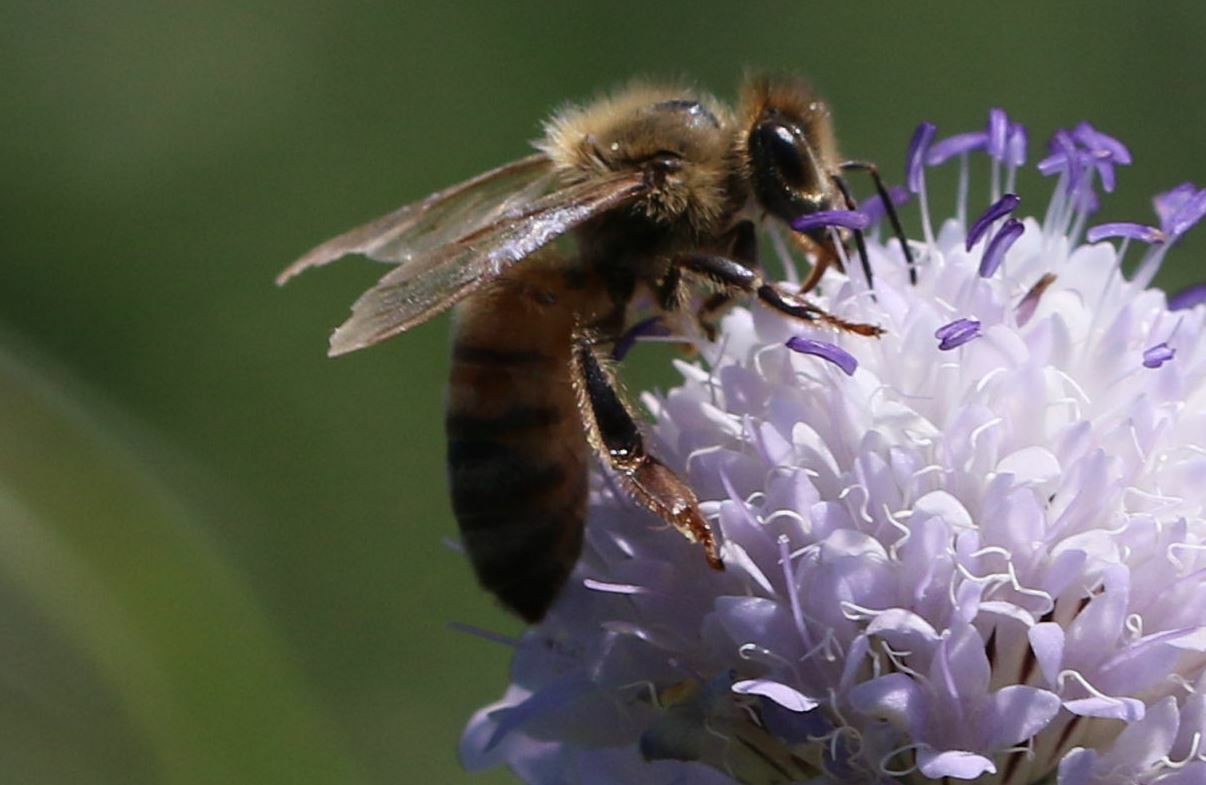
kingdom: Animalia
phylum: Arthropoda
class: Insecta
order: Hymenoptera
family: Apidae
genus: Apis
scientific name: Apis mellifera
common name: Honey bee
